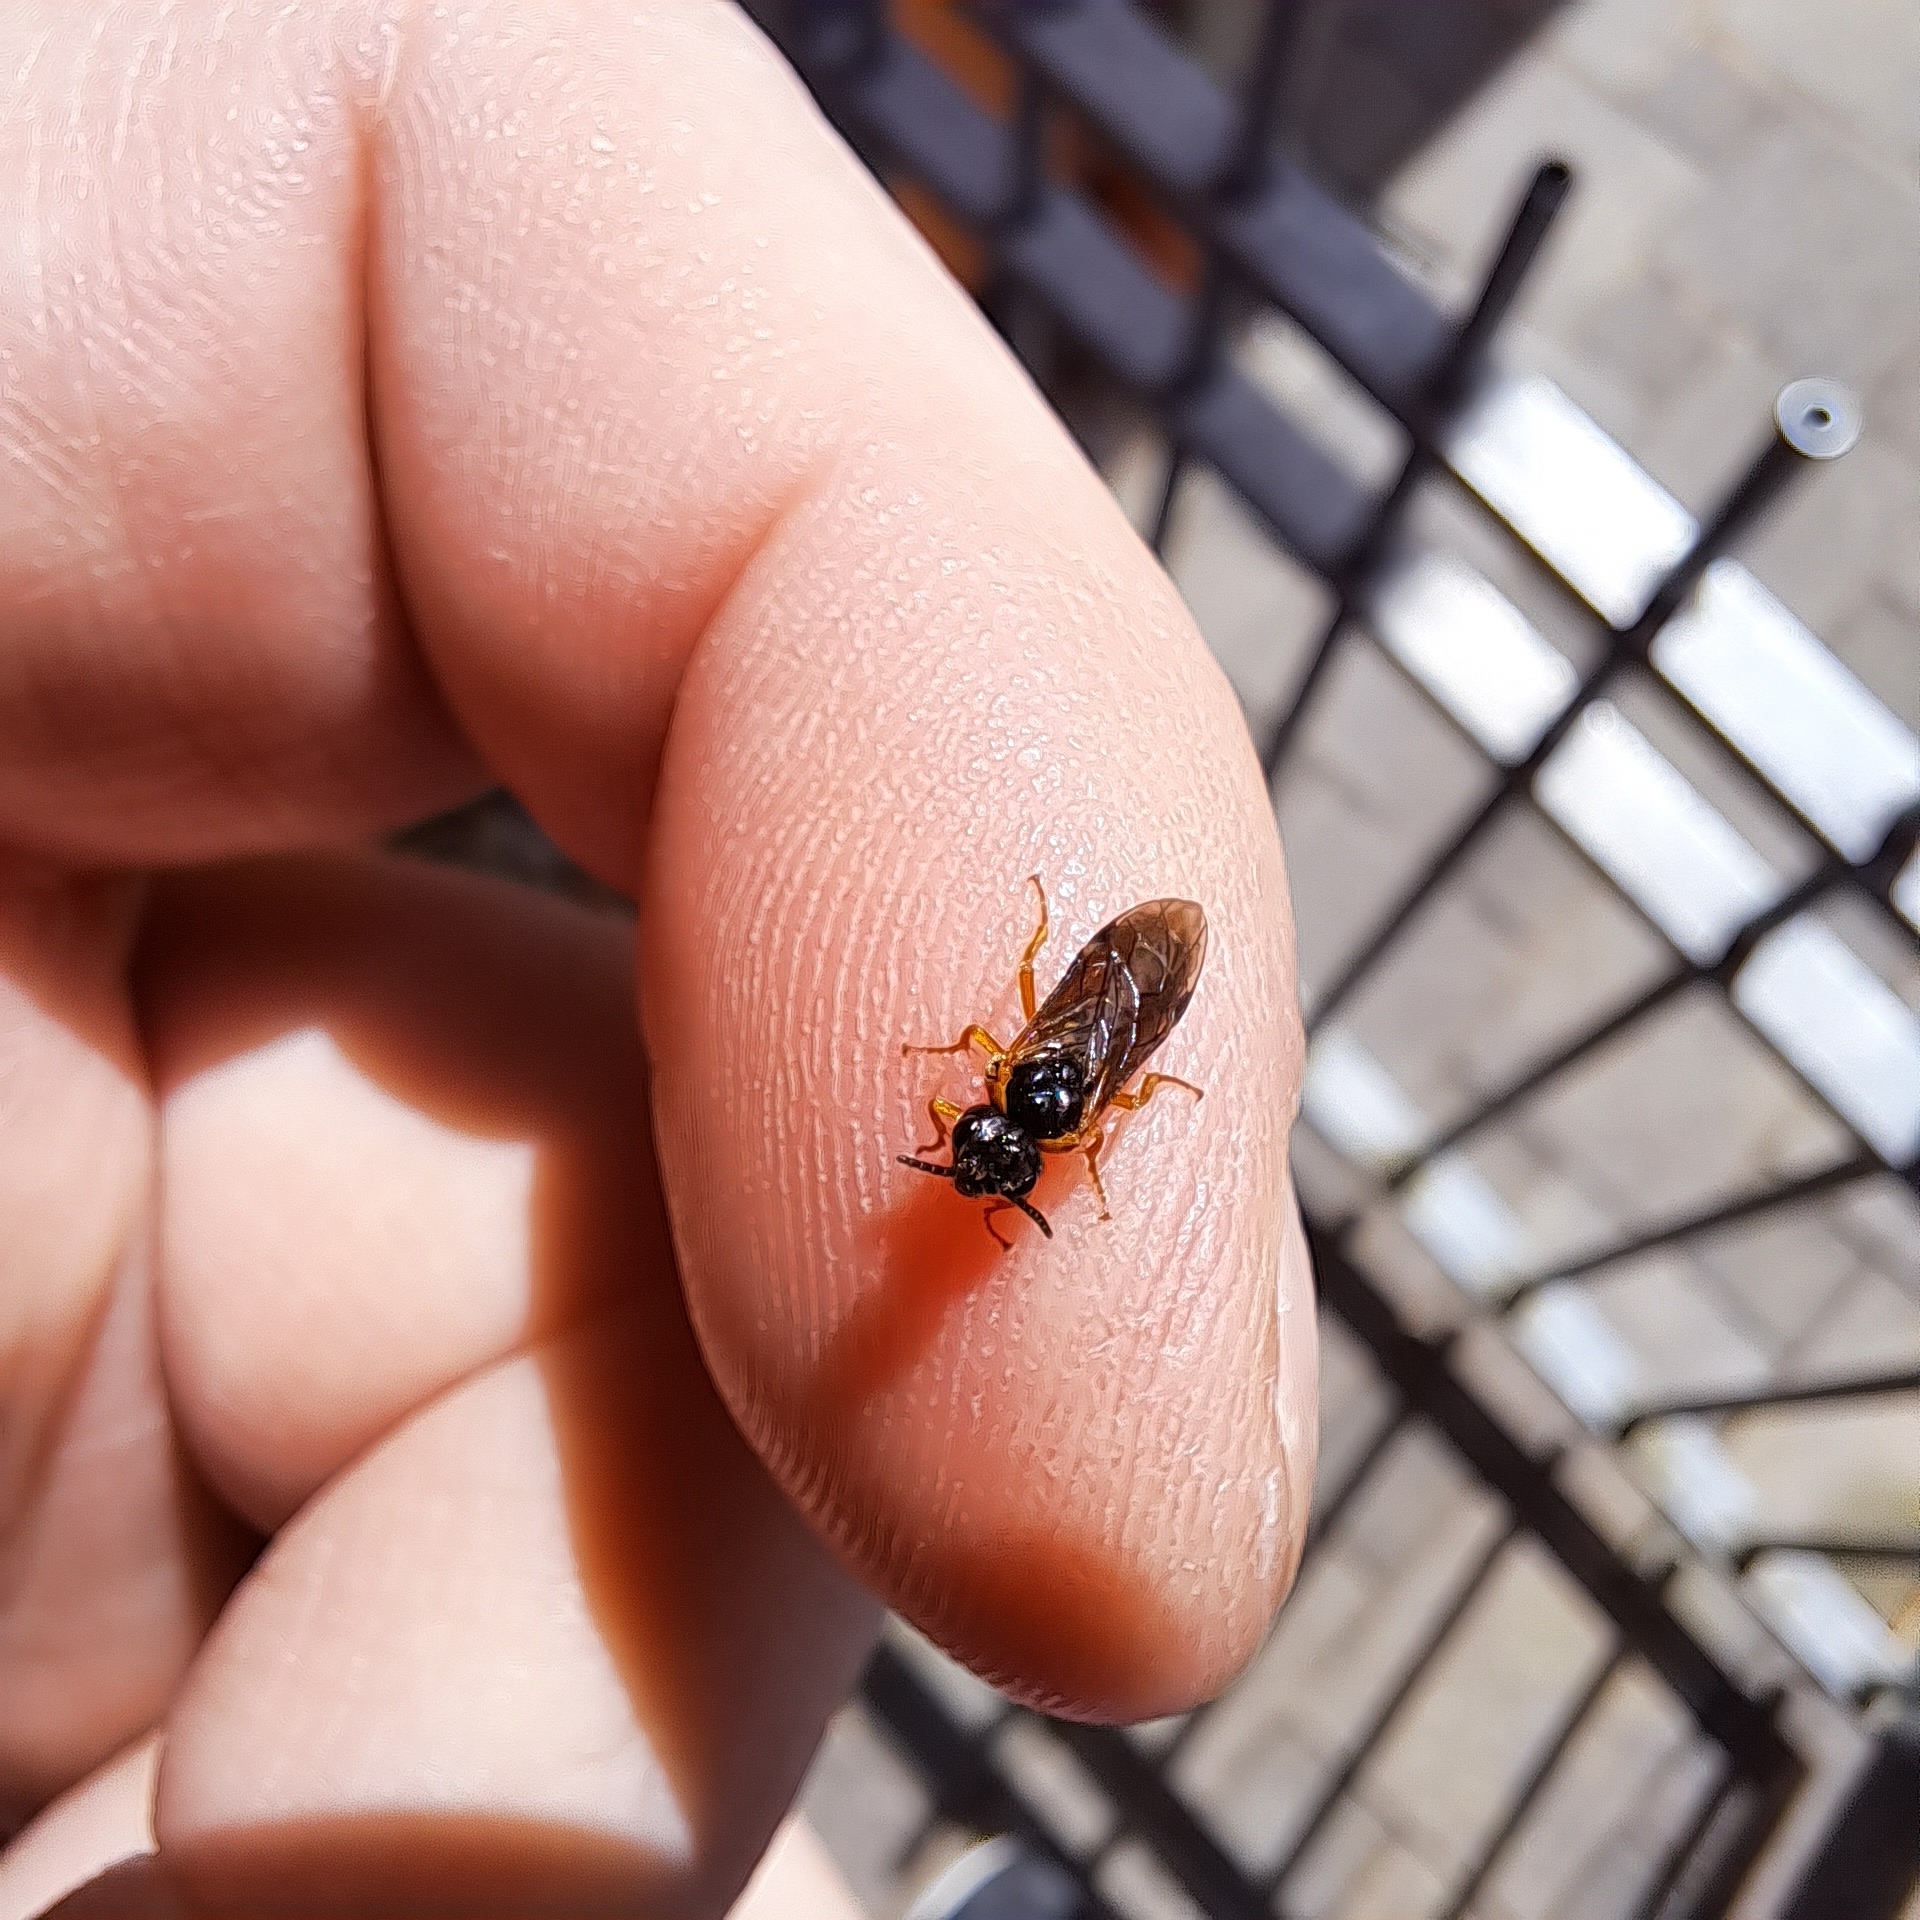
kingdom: Animalia
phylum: Arthropoda
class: Insecta
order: Hymenoptera
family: Tenthredinidae
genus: Monostegia
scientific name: Monostegia abdominalis
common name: Tenthredid wasp
